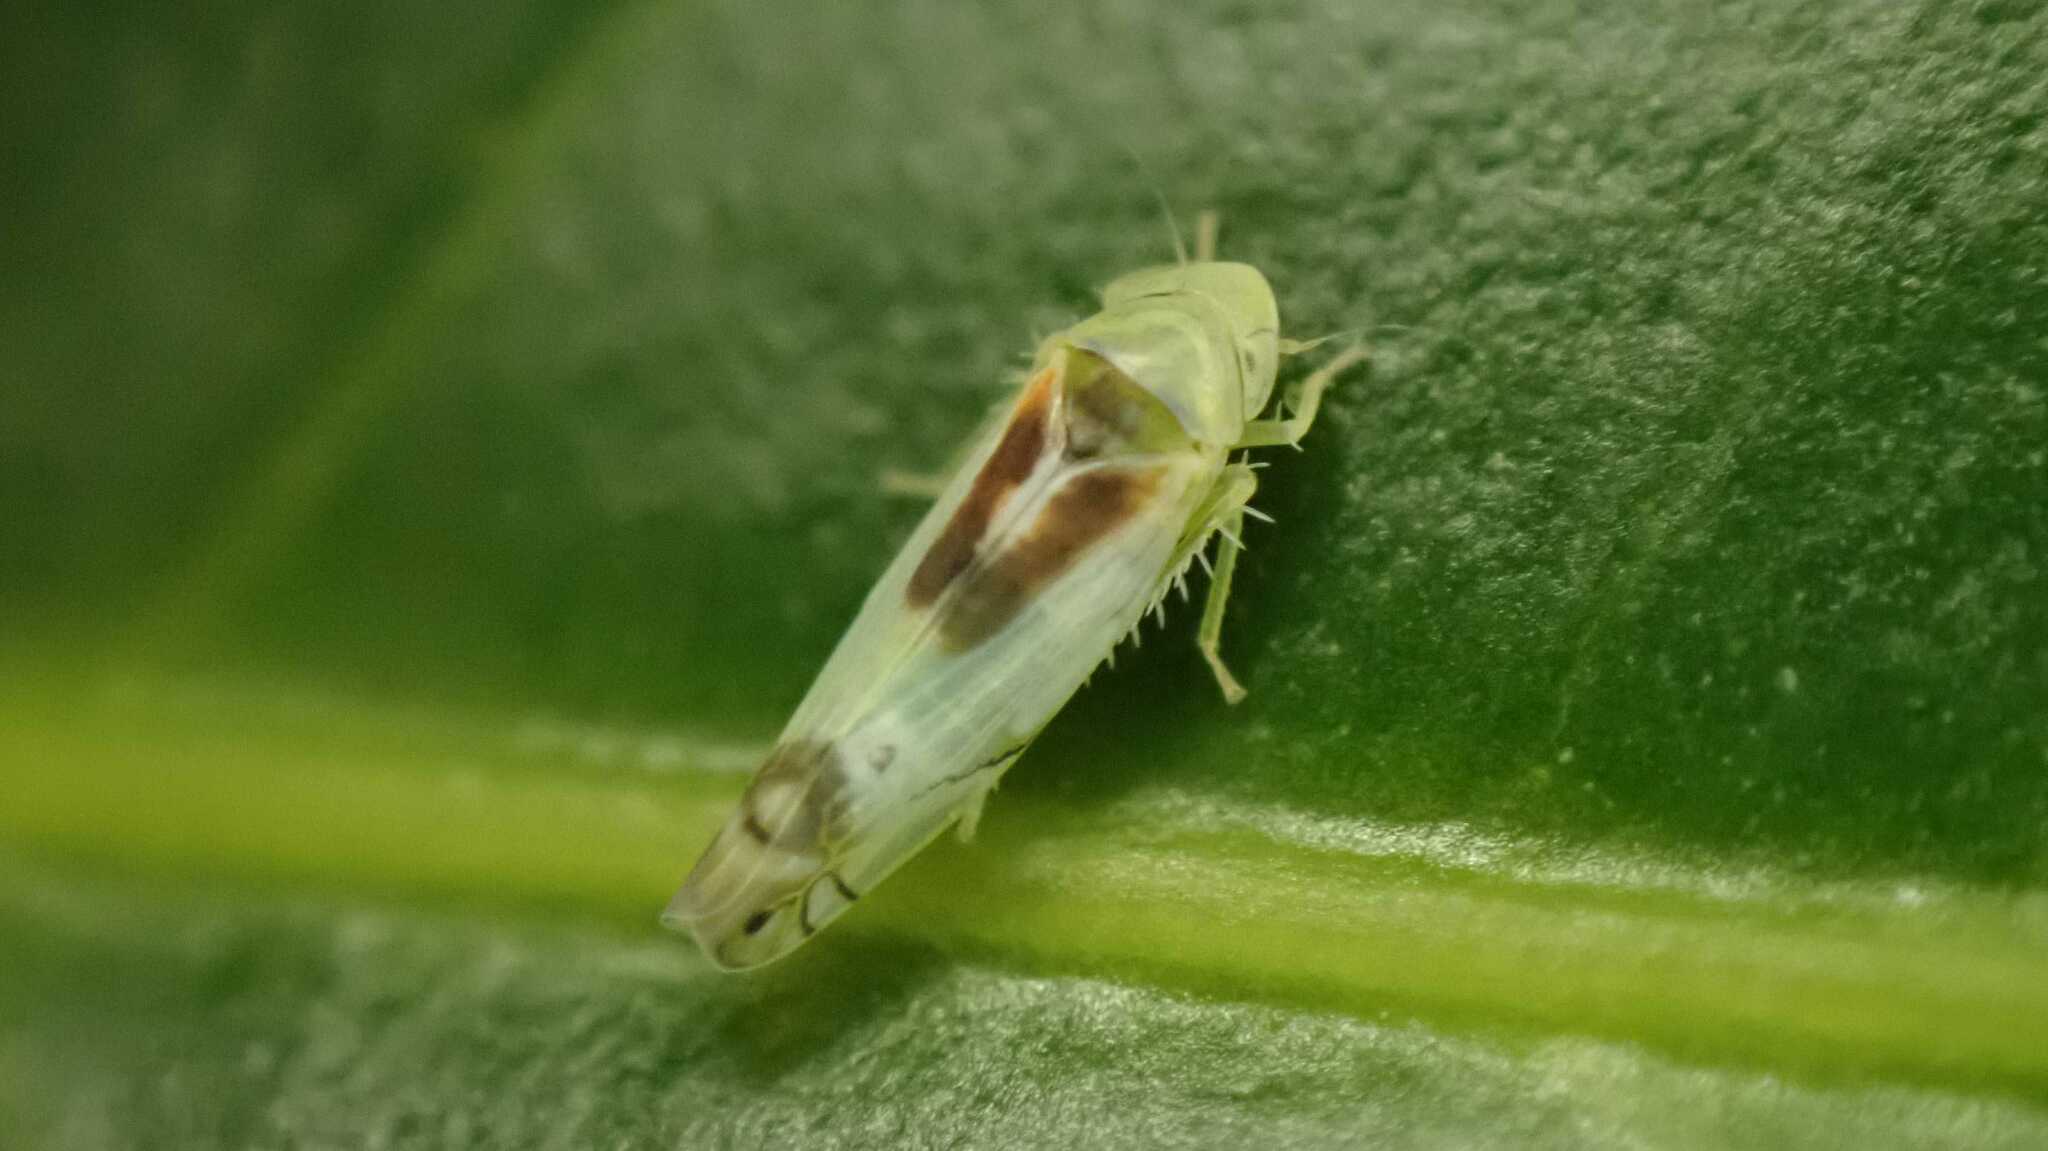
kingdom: Animalia
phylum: Arthropoda
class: Insecta
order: Hemiptera
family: Cicadellidae
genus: Zyginella
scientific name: Zyginella pulchra
